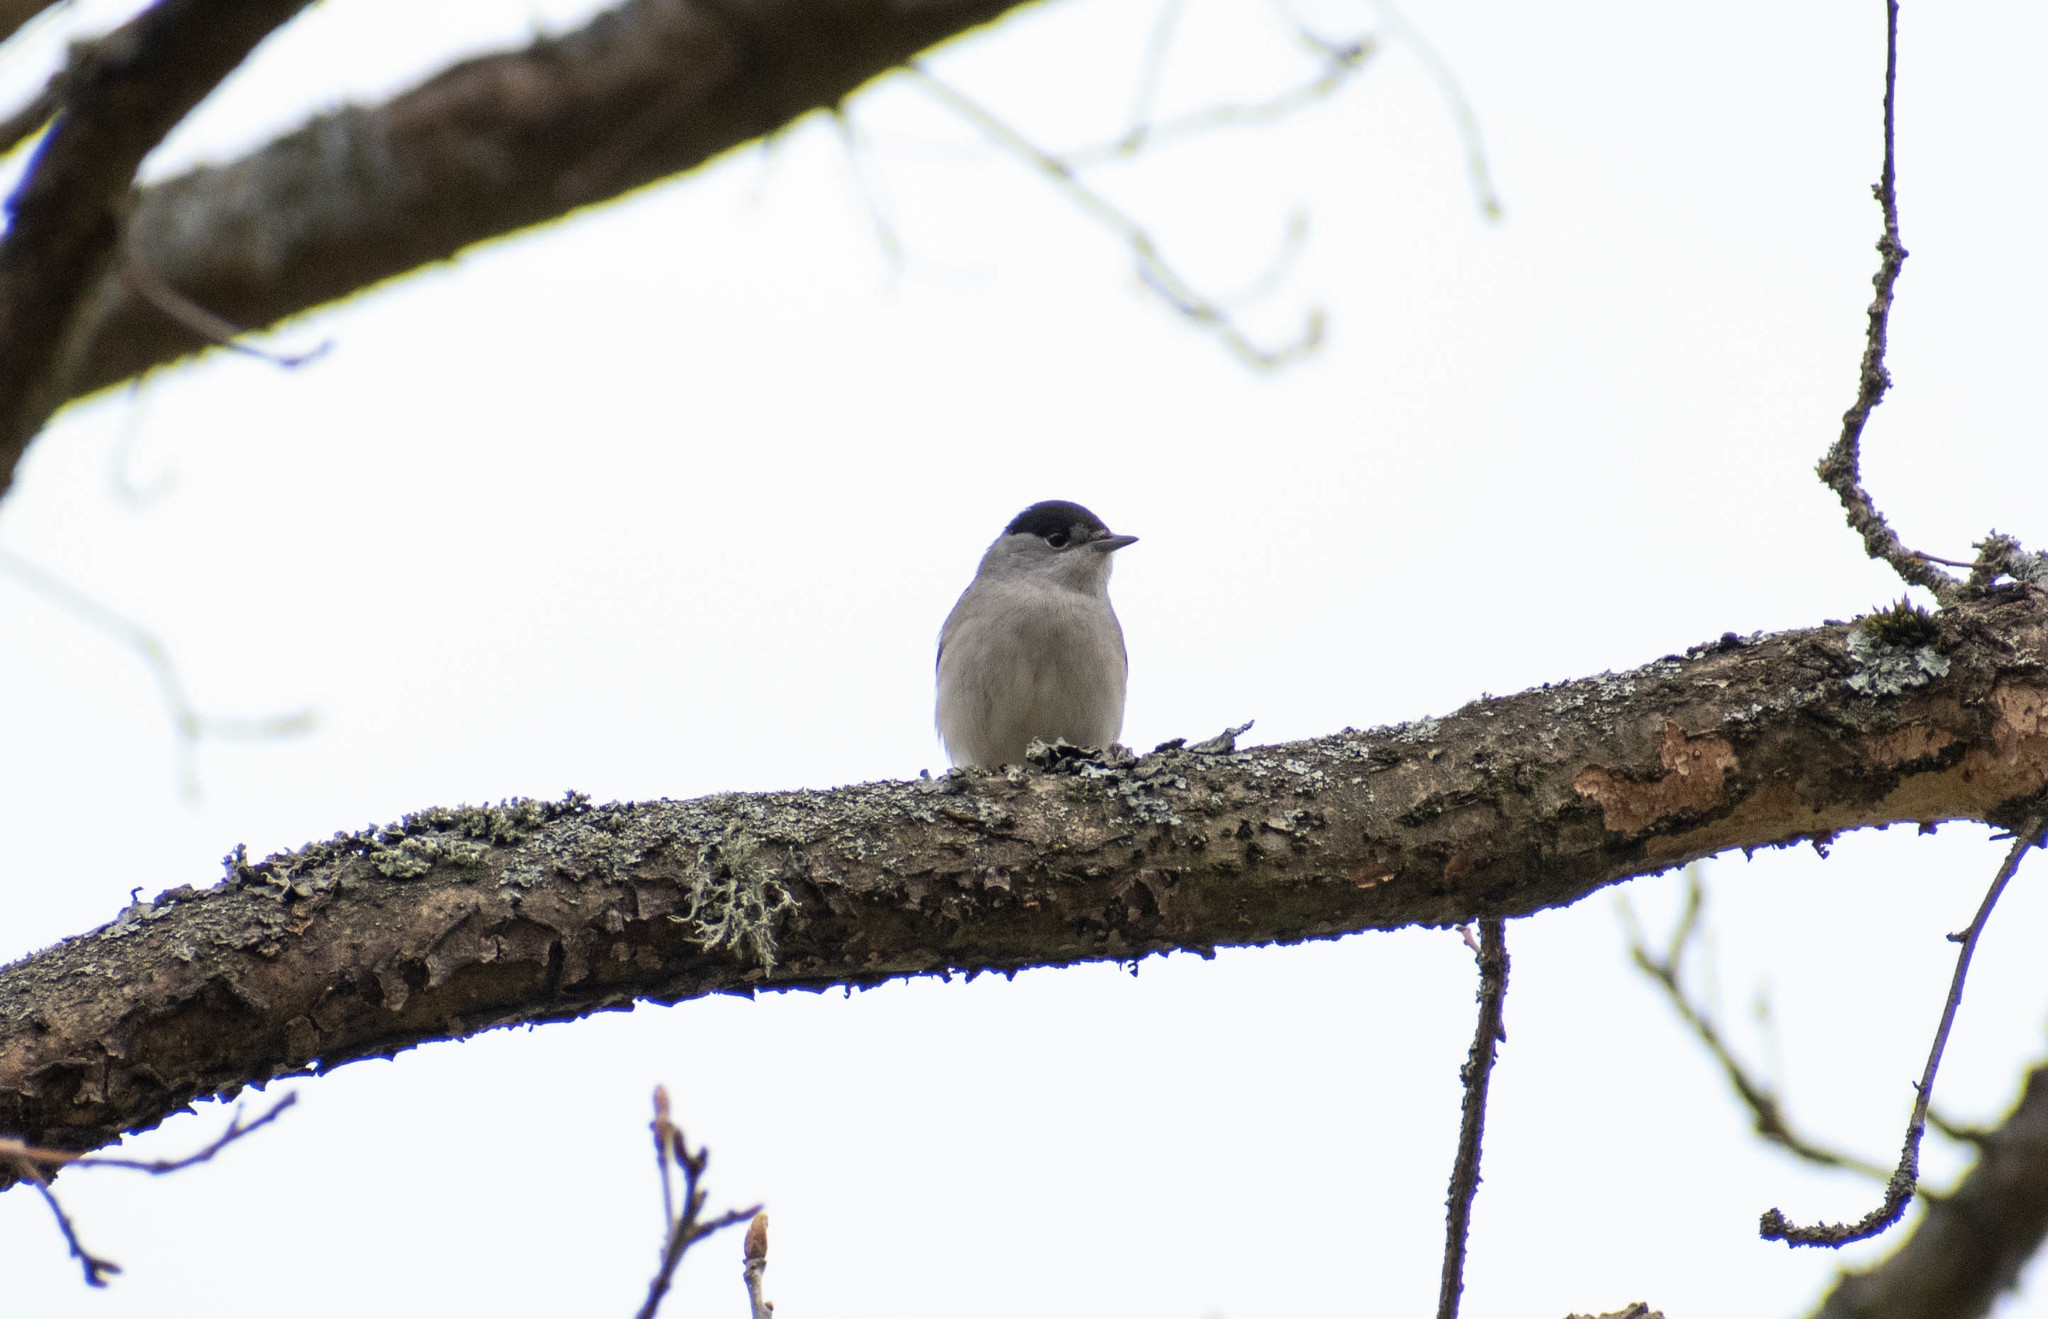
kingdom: Animalia
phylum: Chordata
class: Aves
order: Passeriformes
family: Sylviidae
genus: Sylvia
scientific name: Sylvia atricapilla
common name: Eurasian blackcap
